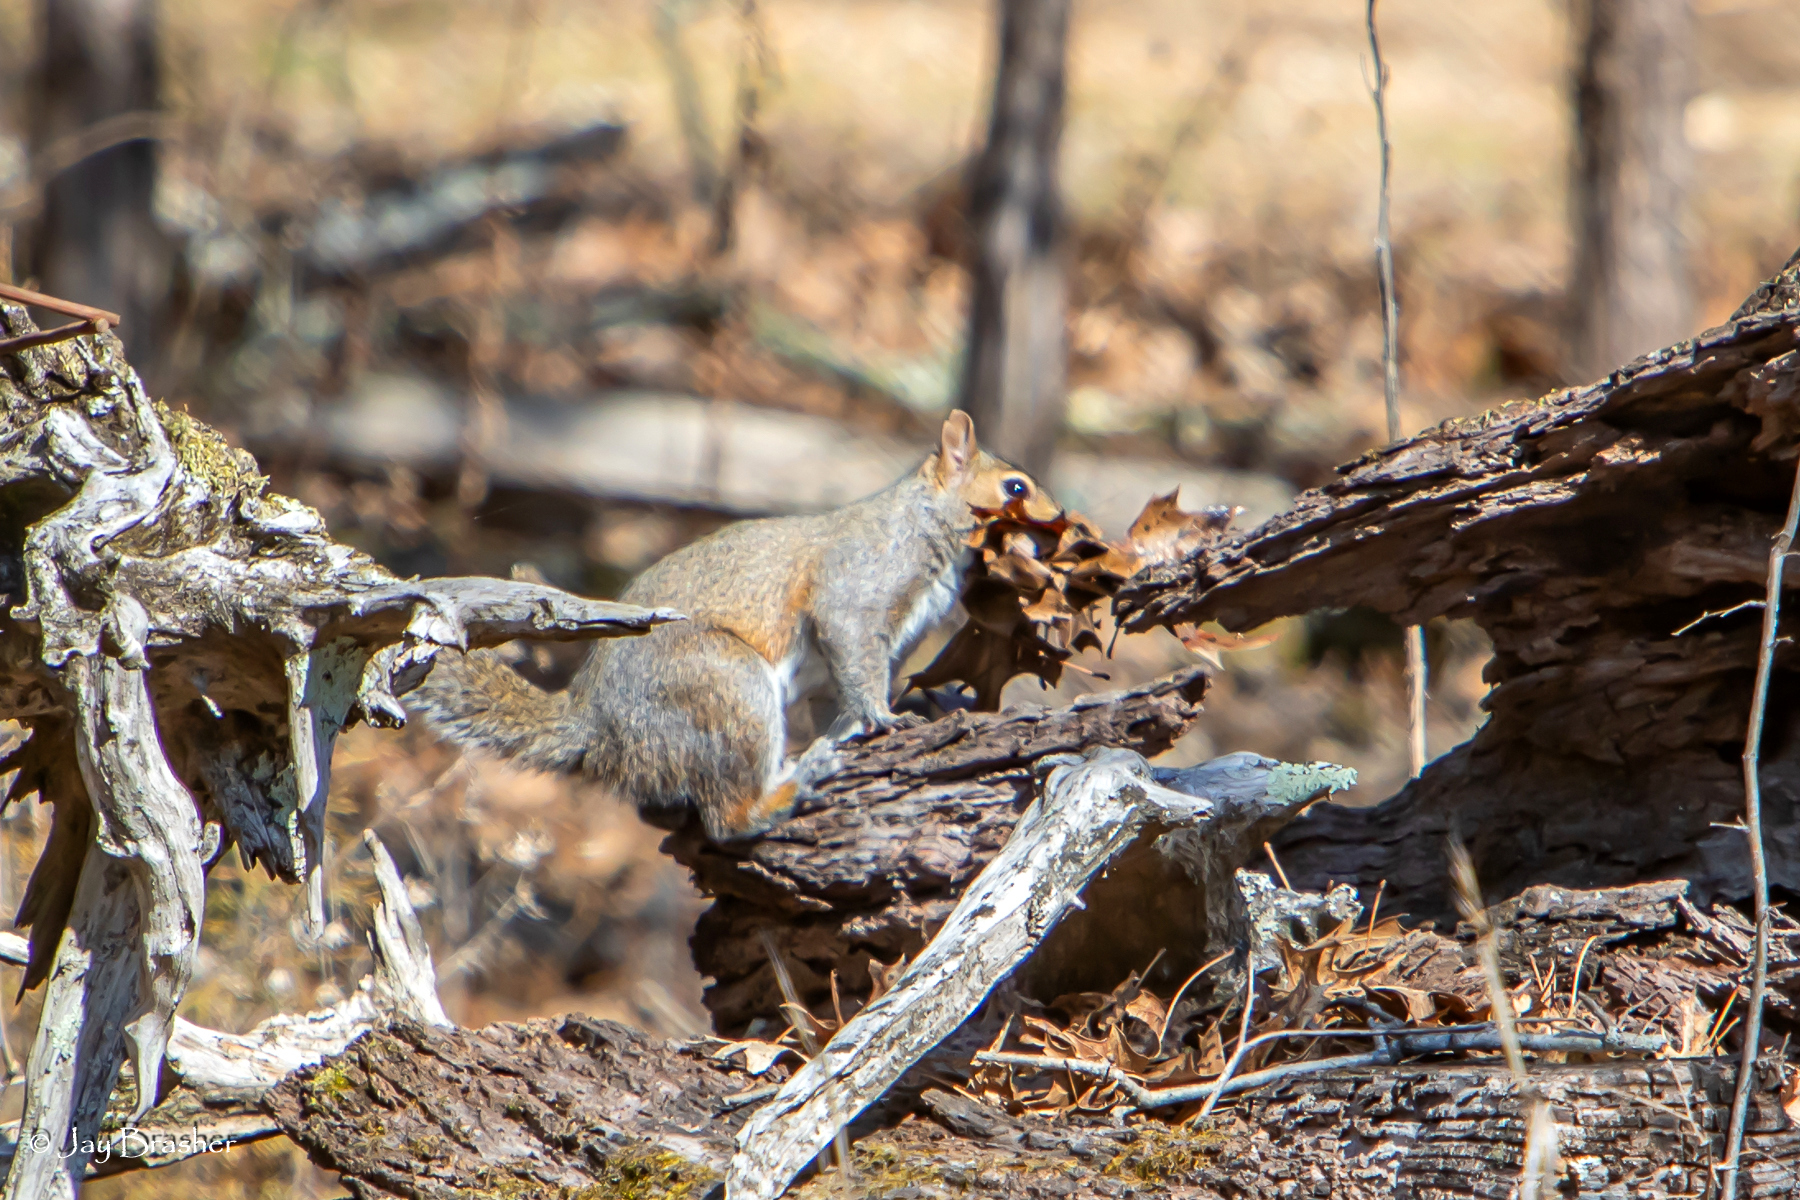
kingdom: Animalia
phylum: Chordata
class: Mammalia
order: Rodentia
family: Sciuridae
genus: Sciurus
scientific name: Sciurus carolinensis
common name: Eastern gray squirrel
